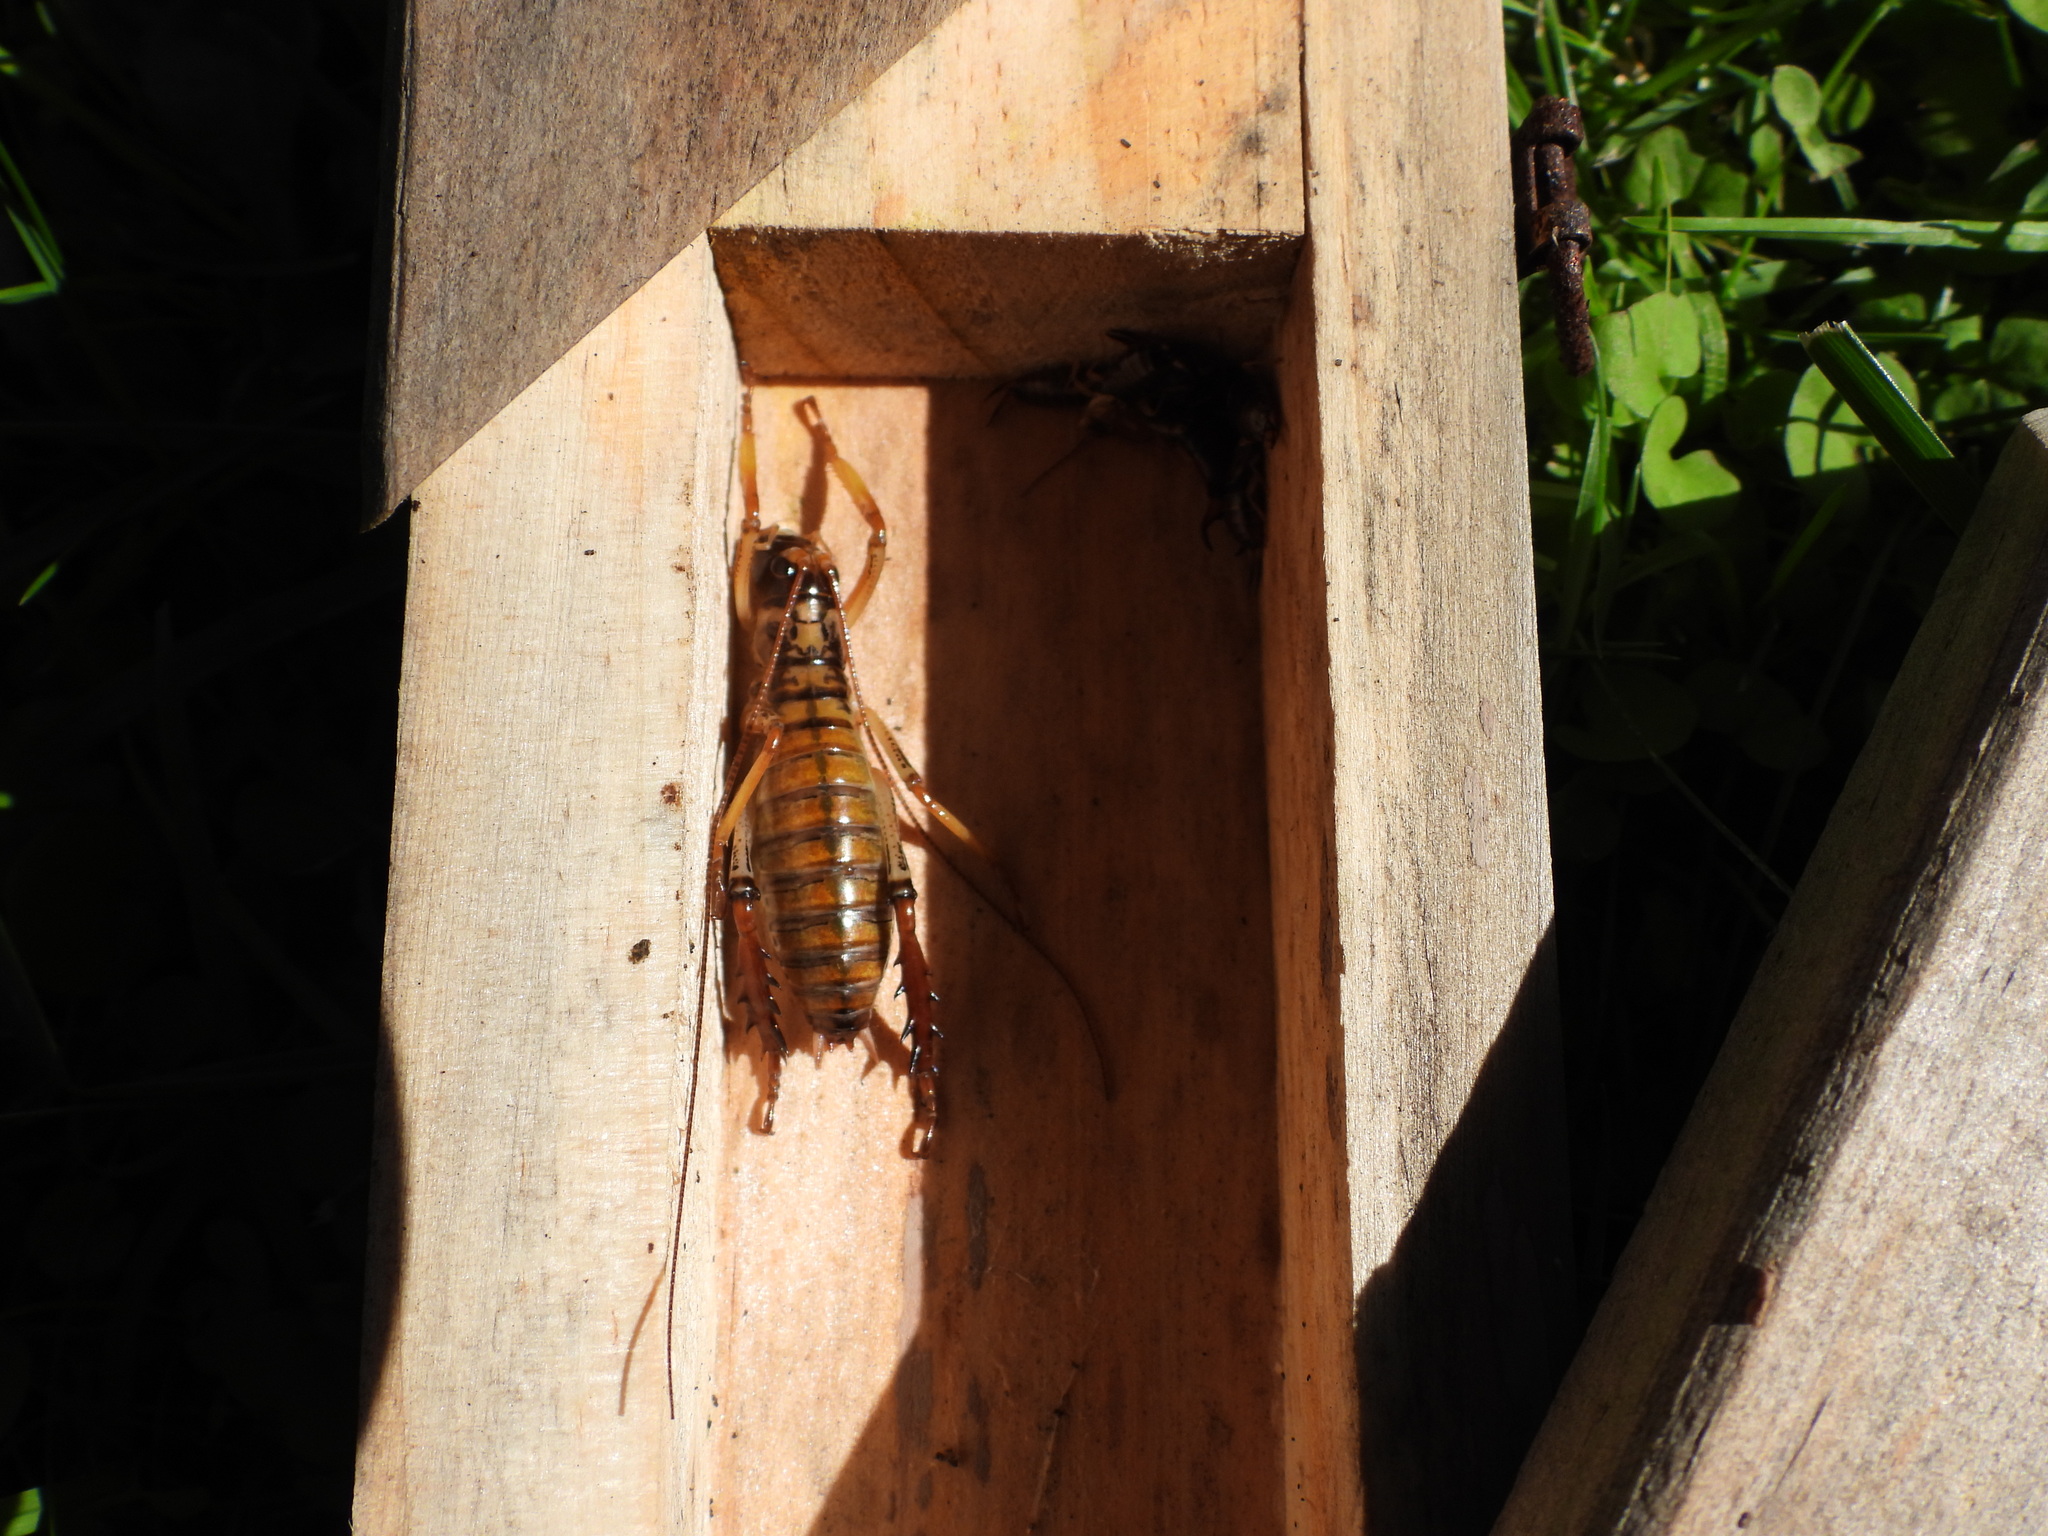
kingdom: Animalia
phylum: Arthropoda
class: Insecta
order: Orthoptera
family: Anostostomatidae
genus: Hemideina
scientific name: Hemideina thoracica
